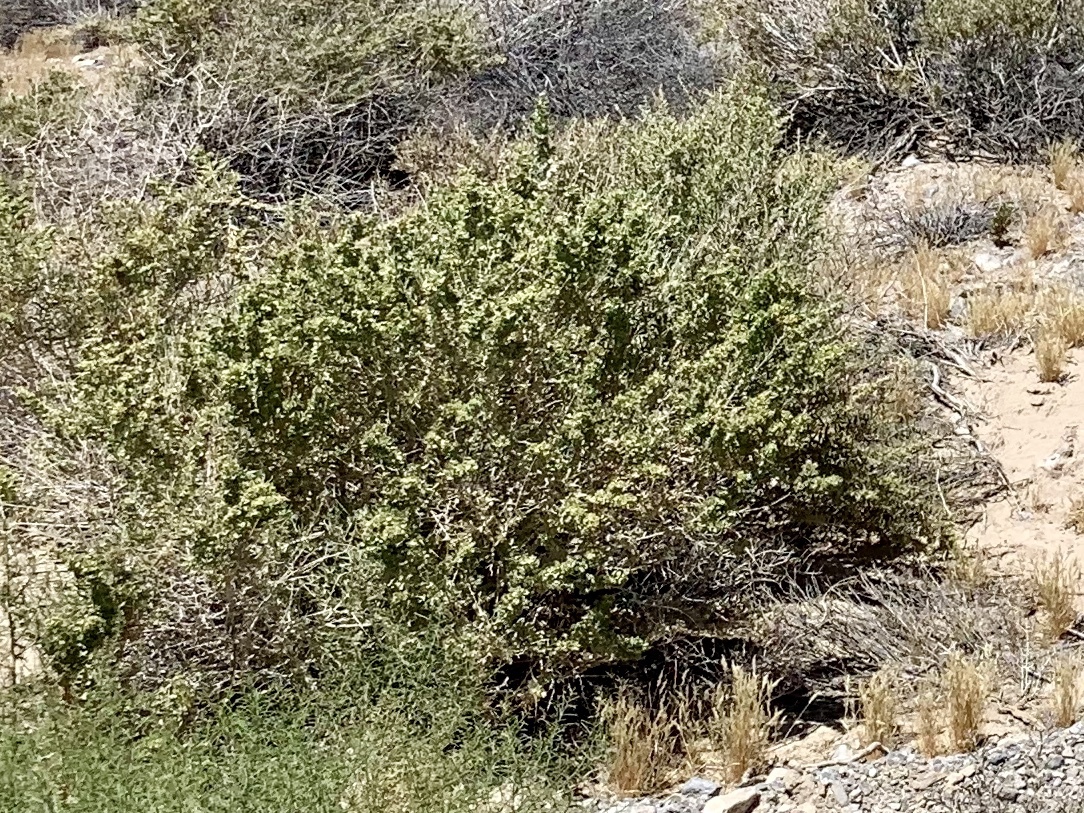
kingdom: Plantae
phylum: Tracheophyta
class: Magnoliopsida
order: Caryophyllales
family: Amaranthaceae
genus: Atriplex
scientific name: Atriplex canescens
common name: Four-wing saltbush
